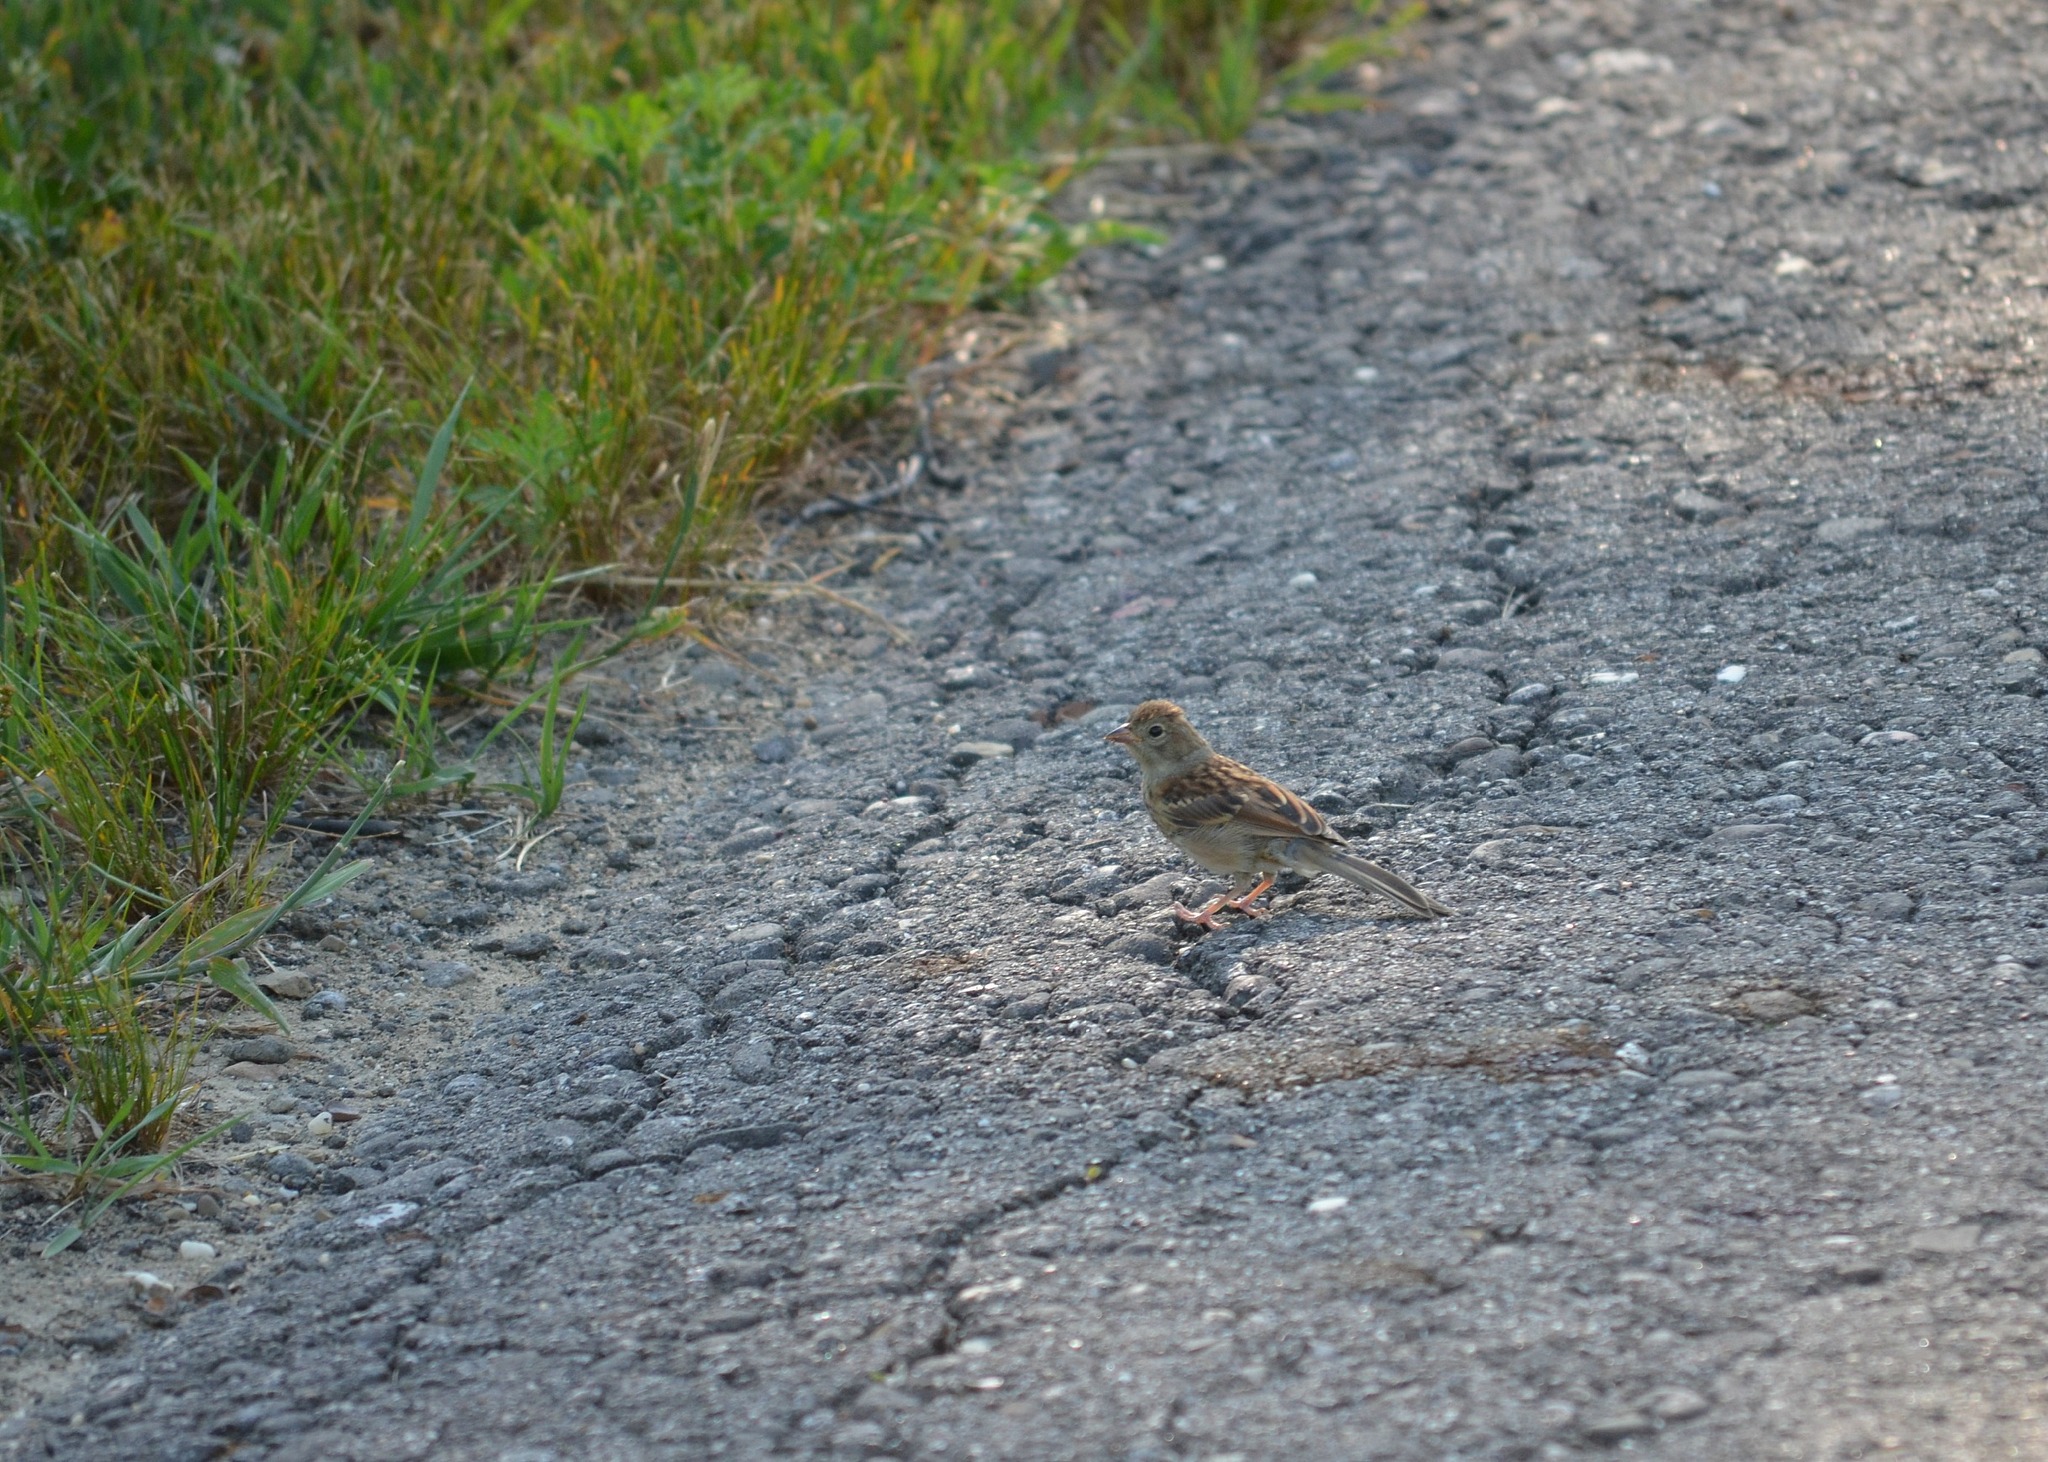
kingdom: Animalia
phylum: Chordata
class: Aves
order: Passeriformes
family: Passerellidae
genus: Spizella
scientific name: Spizella pusilla
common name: Field sparrow
